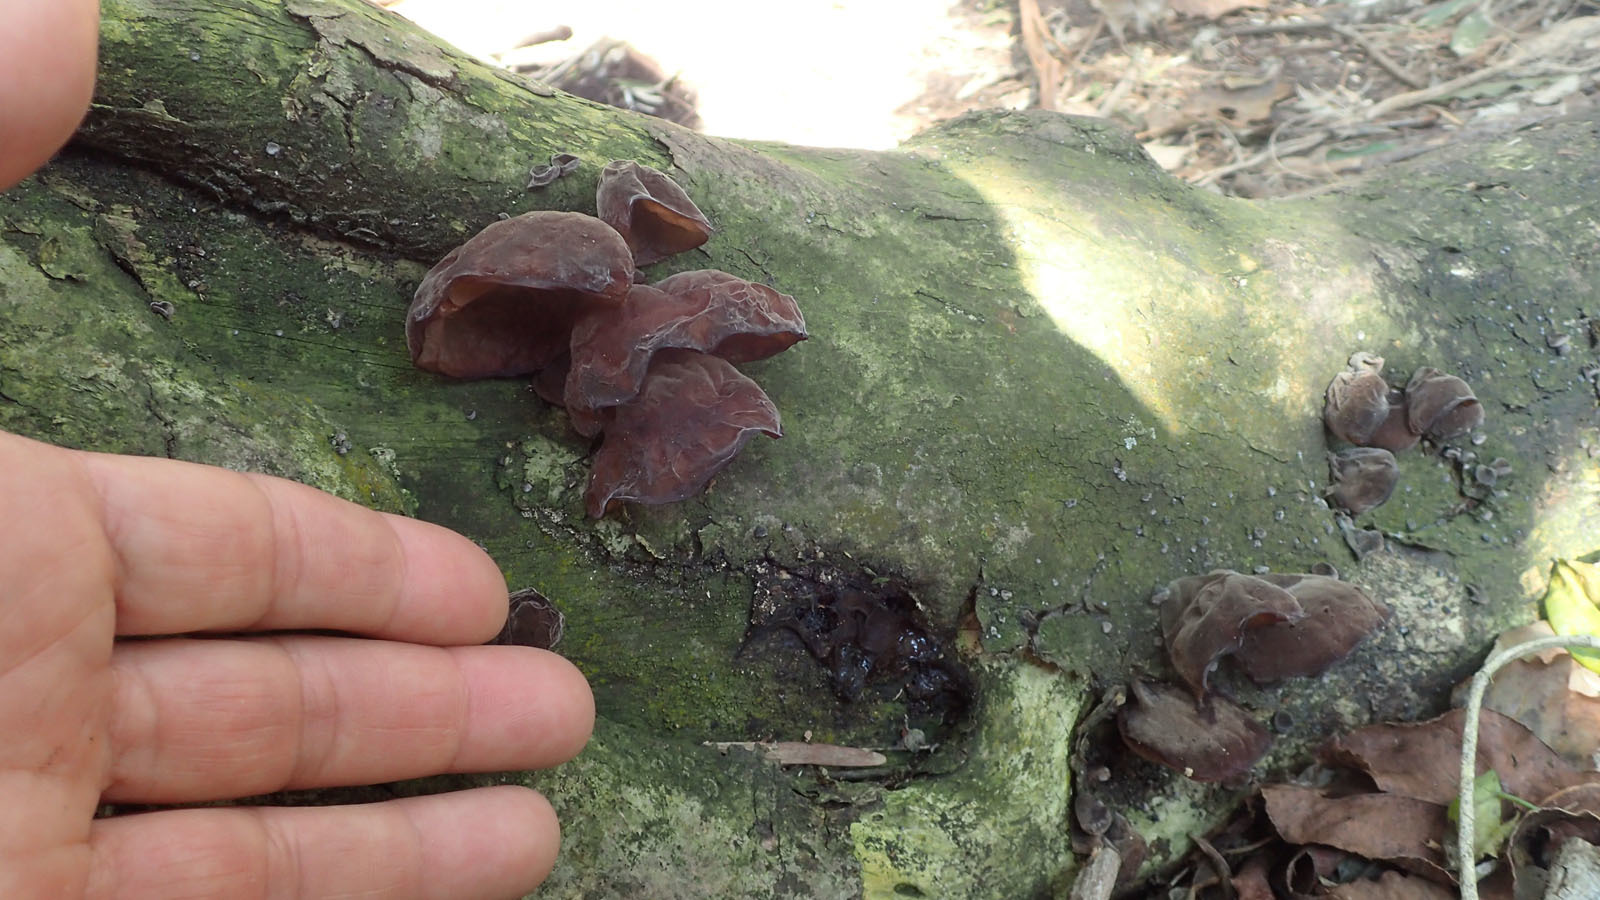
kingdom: Fungi
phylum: Basidiomycota
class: Agaricomycetes
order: Auriculariales
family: Auriculariaceae
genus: Auricularia
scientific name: Auricularia auricula-judae
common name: Jelly ear
